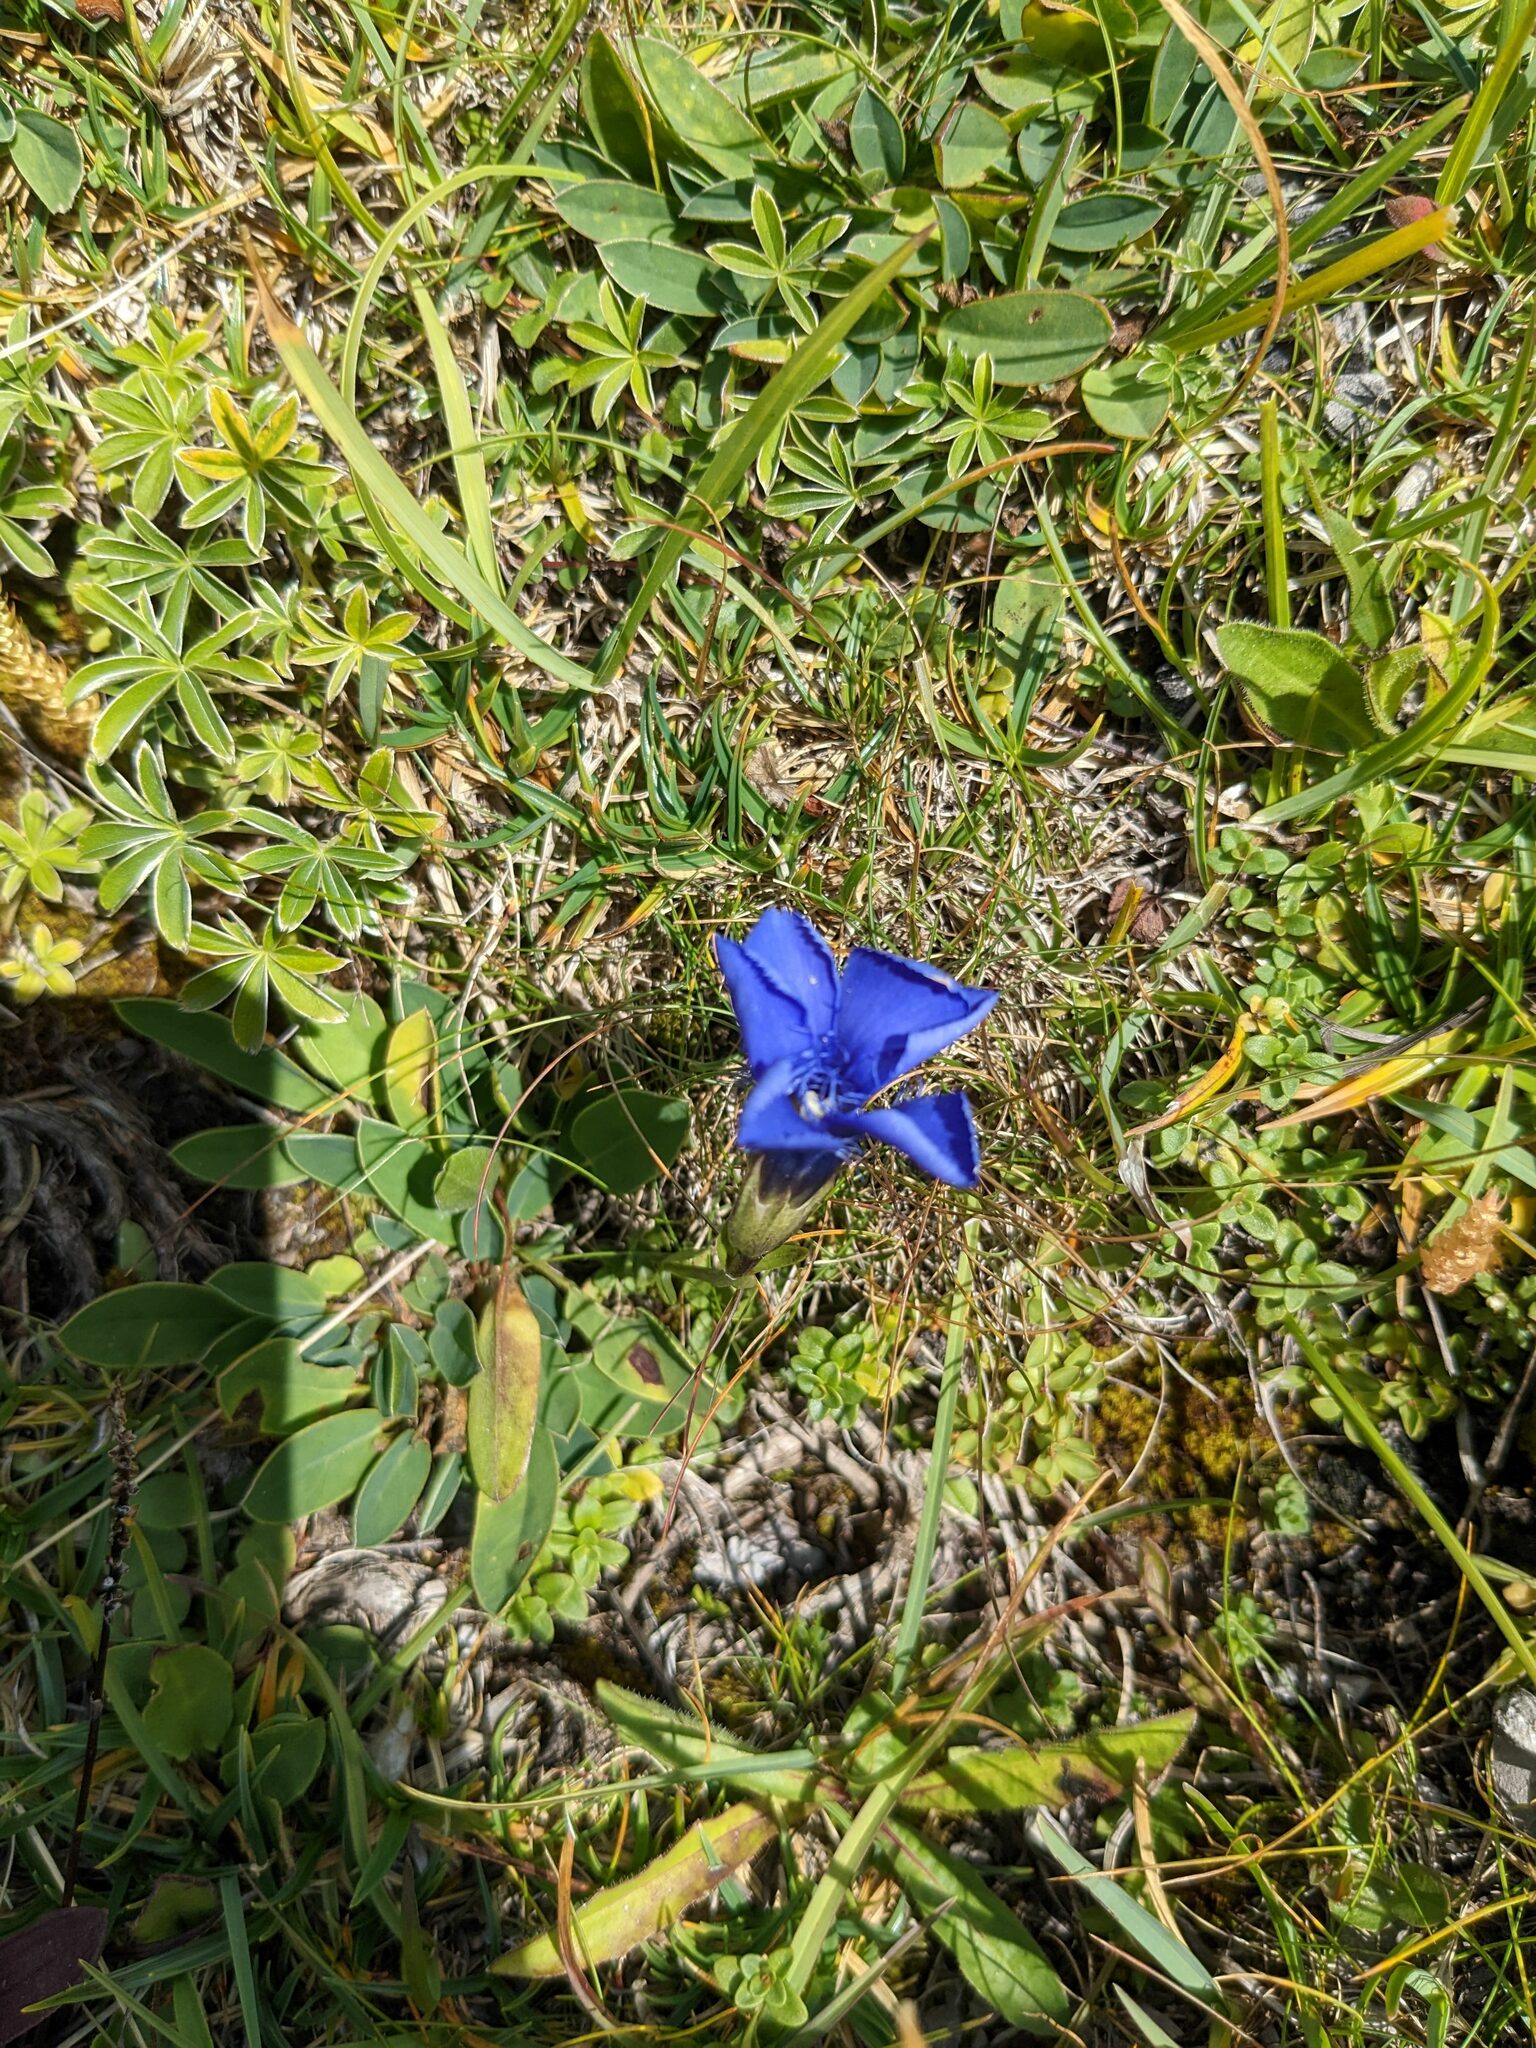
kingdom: Plantae
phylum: Tracheophyta
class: Magnoliopsida
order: Gentianales
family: Gentianaceae
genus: Gentianopsis
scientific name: Gentianopsis ciliata
